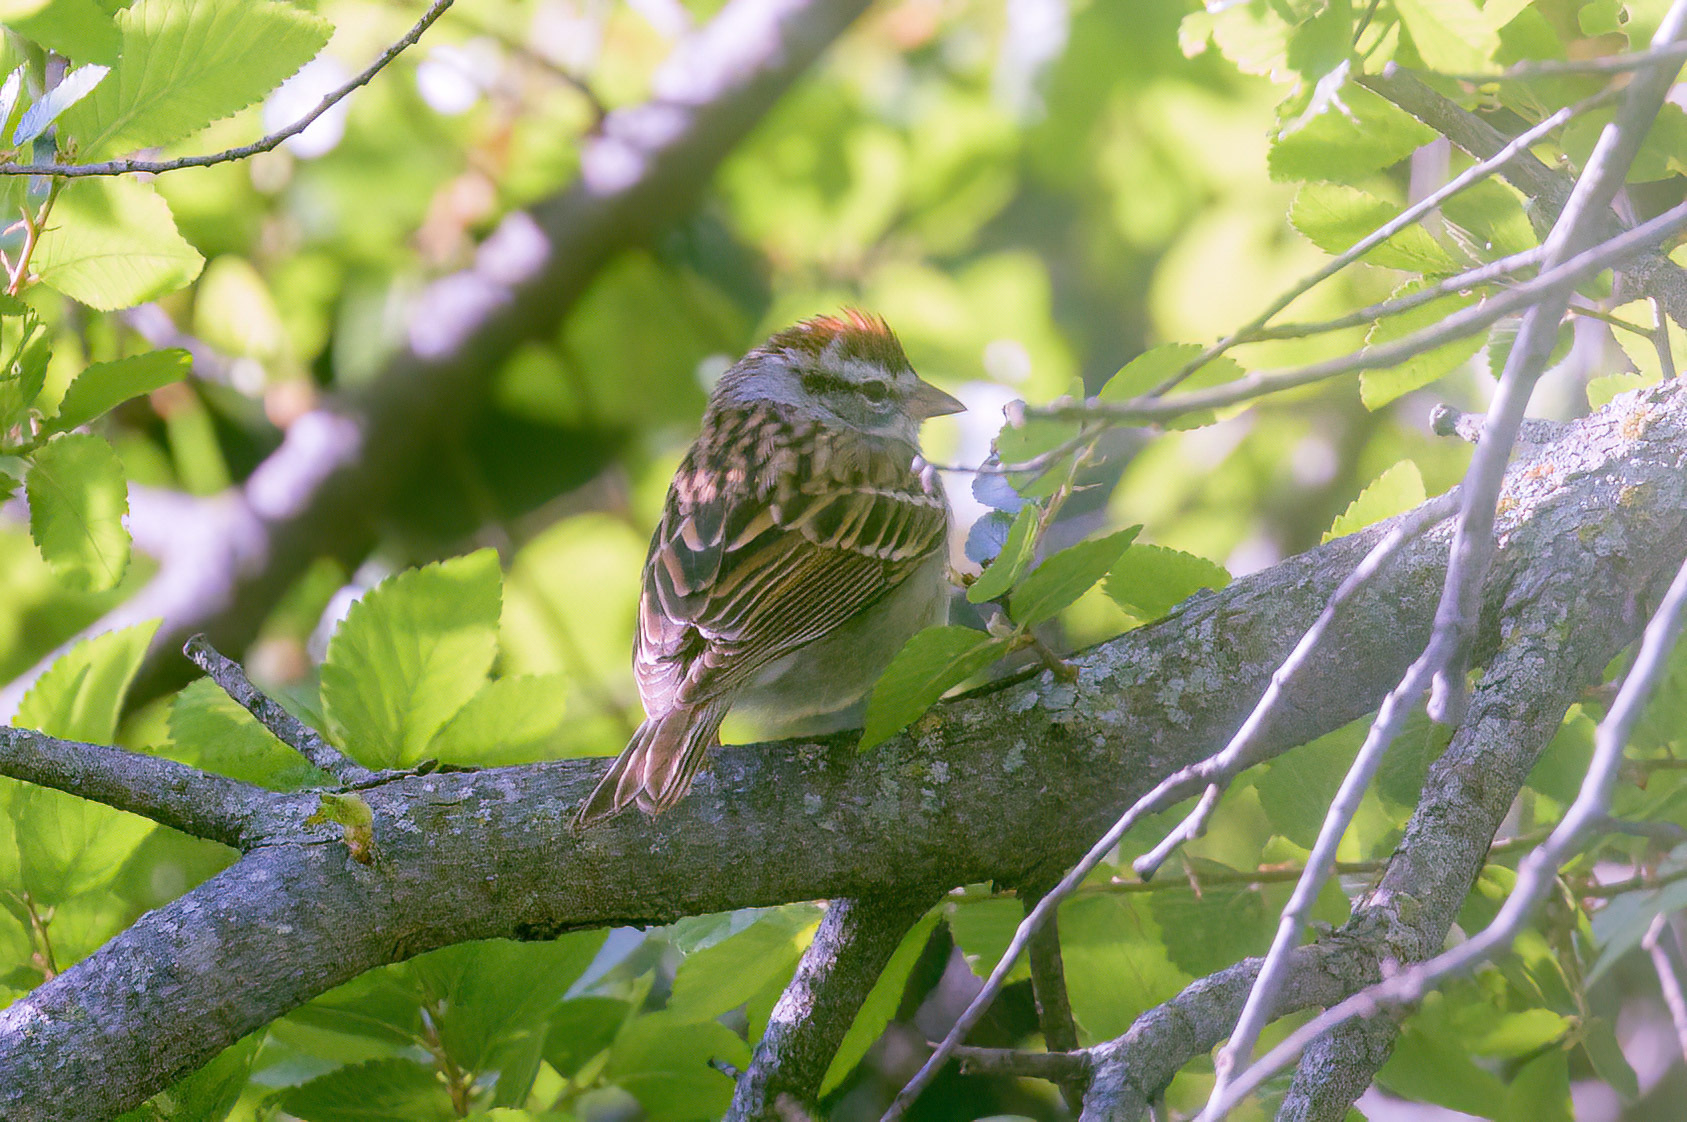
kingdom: Animalia
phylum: Chordata
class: Aves
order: Passeriformes
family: Passerellidae
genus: Spizella
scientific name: Spizella passerina
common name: Chipping sparrow
